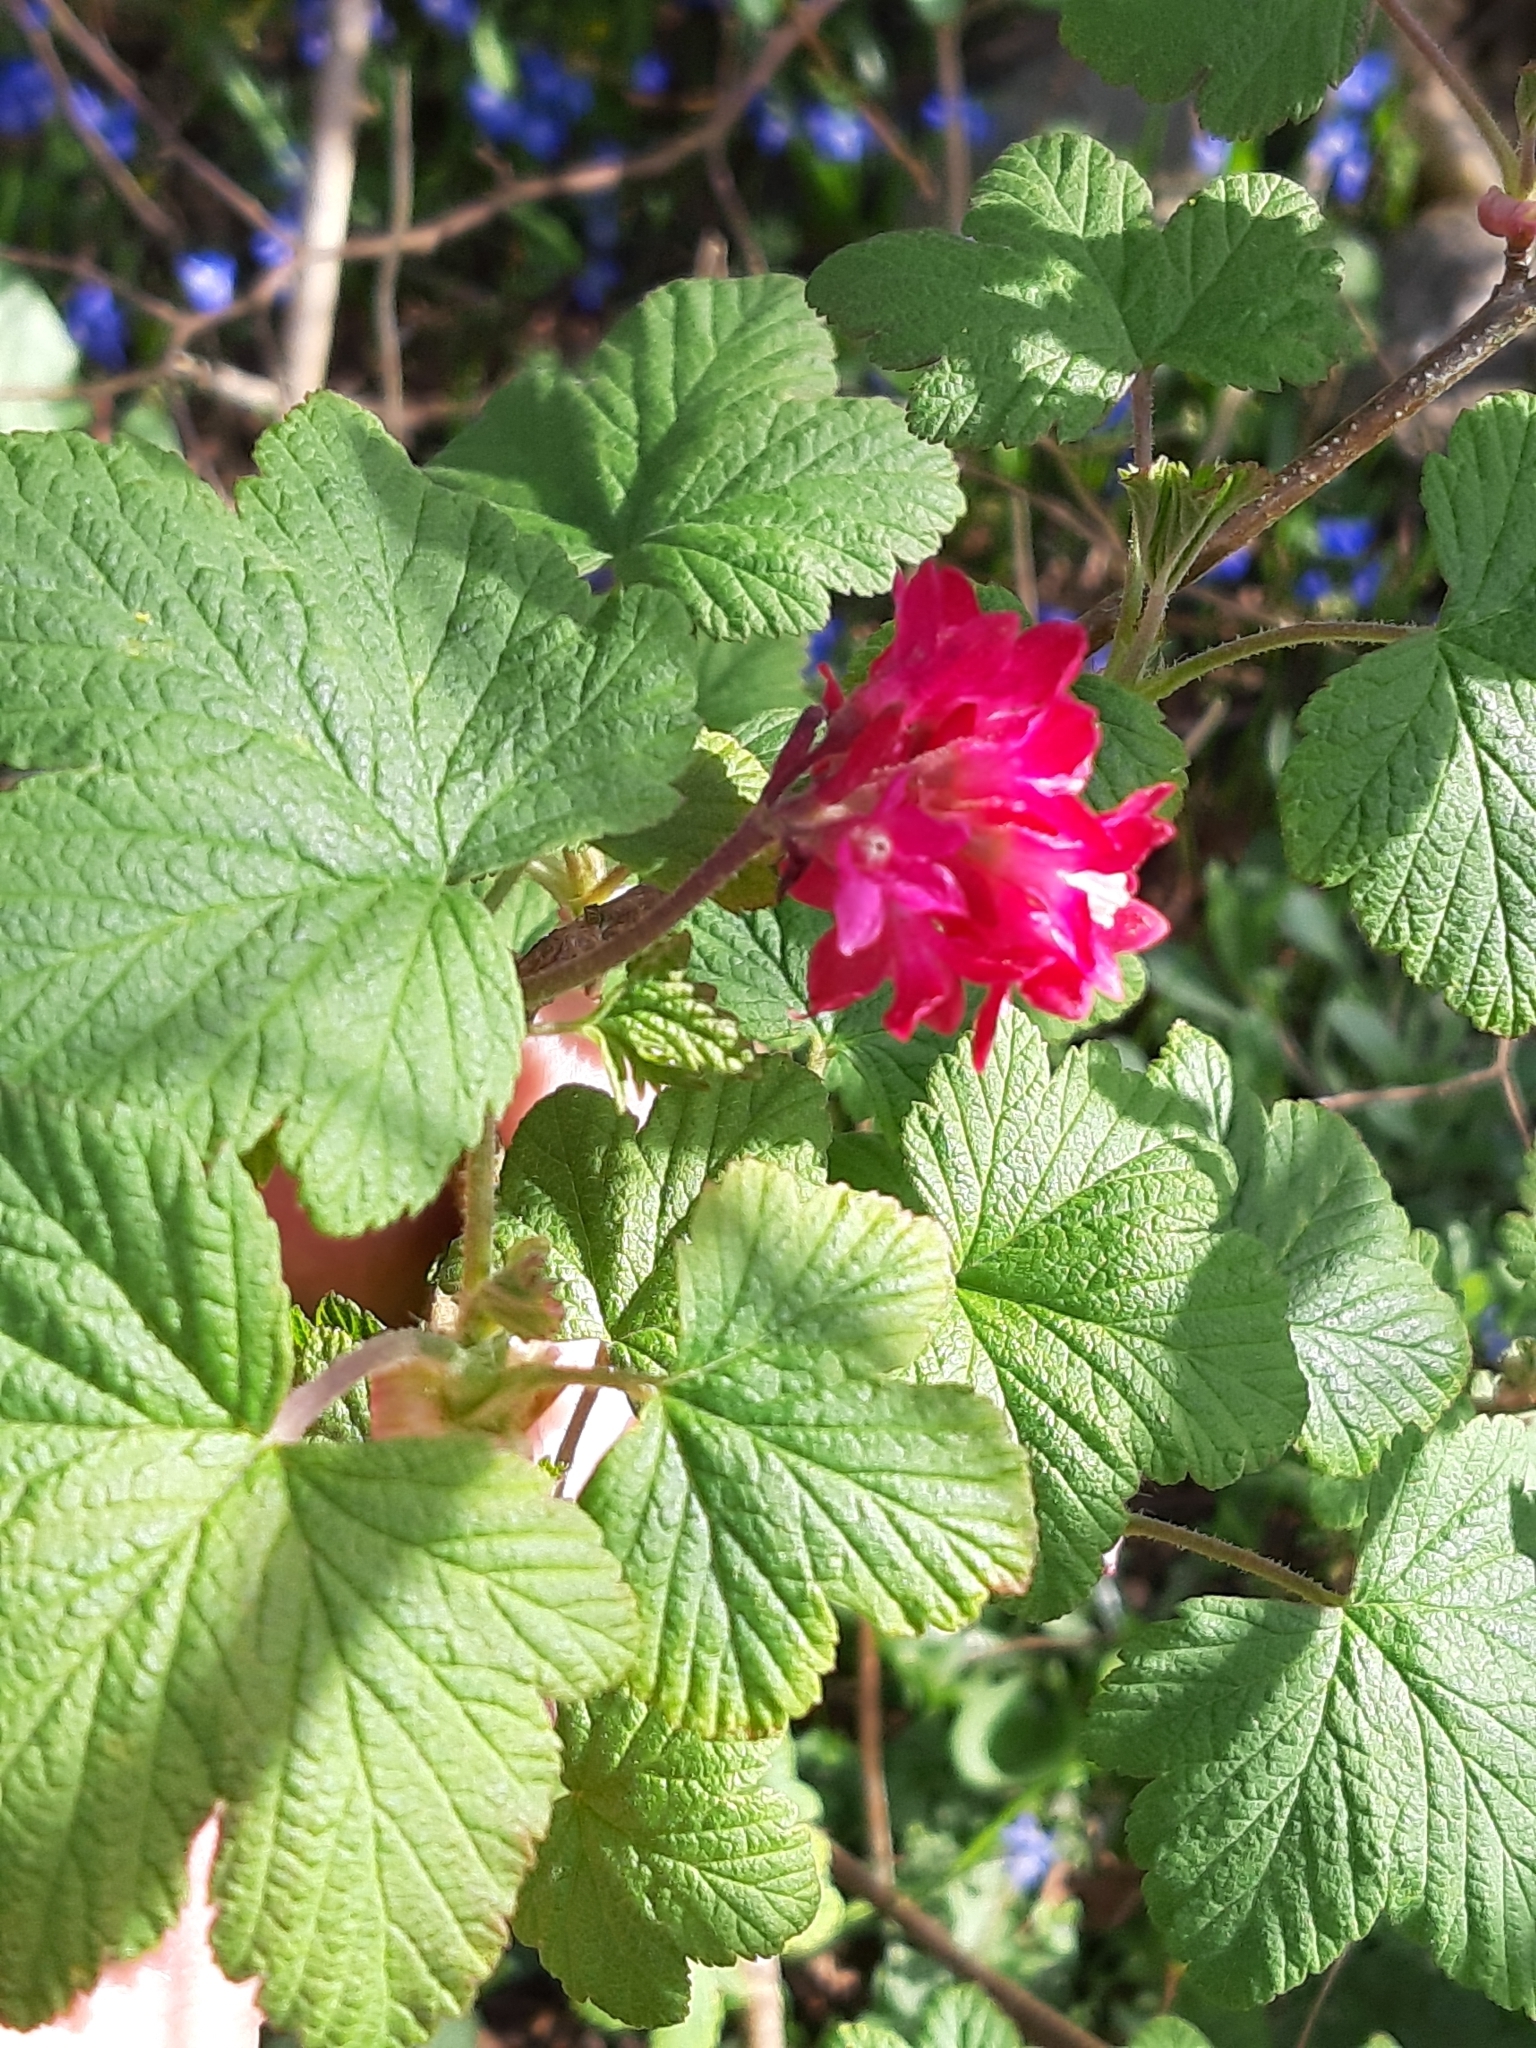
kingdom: Plantae
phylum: Tracheophyta
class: Magnoliopsida
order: Saxifragales
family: Grossulariaceae
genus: Ribes
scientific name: Ribes sanguineum
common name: Flowering currant
